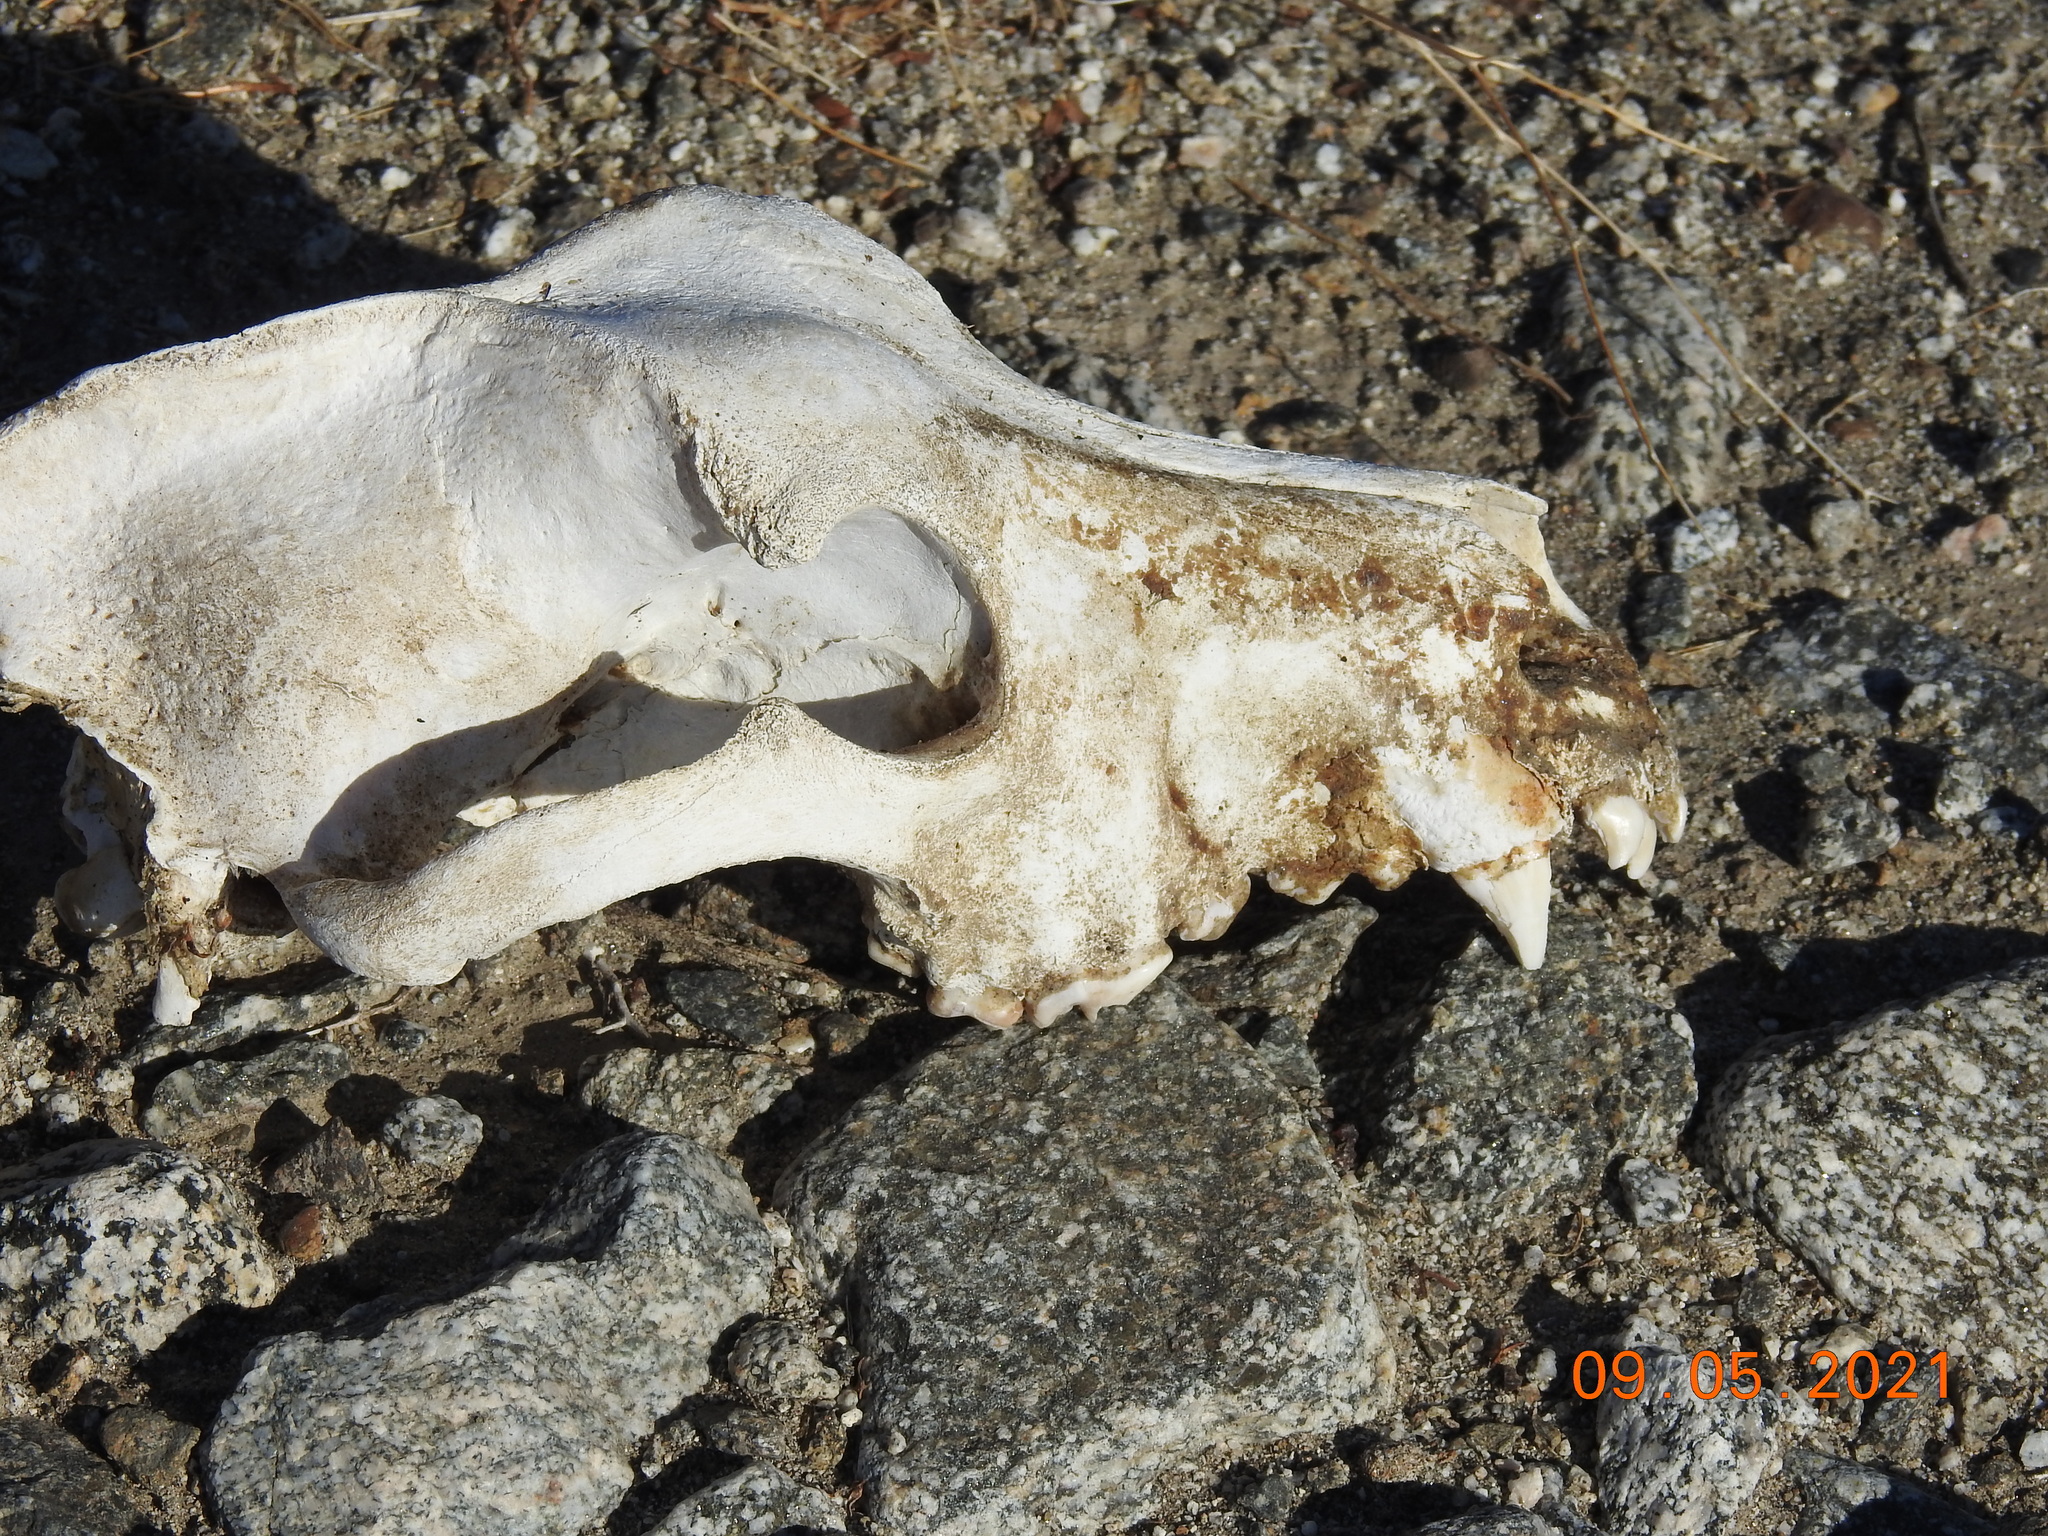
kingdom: Animalia
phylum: Chordata
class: Mammalia
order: Carnivora
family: Canidae
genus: Canis
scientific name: Canis lupus
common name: Gray wolf
